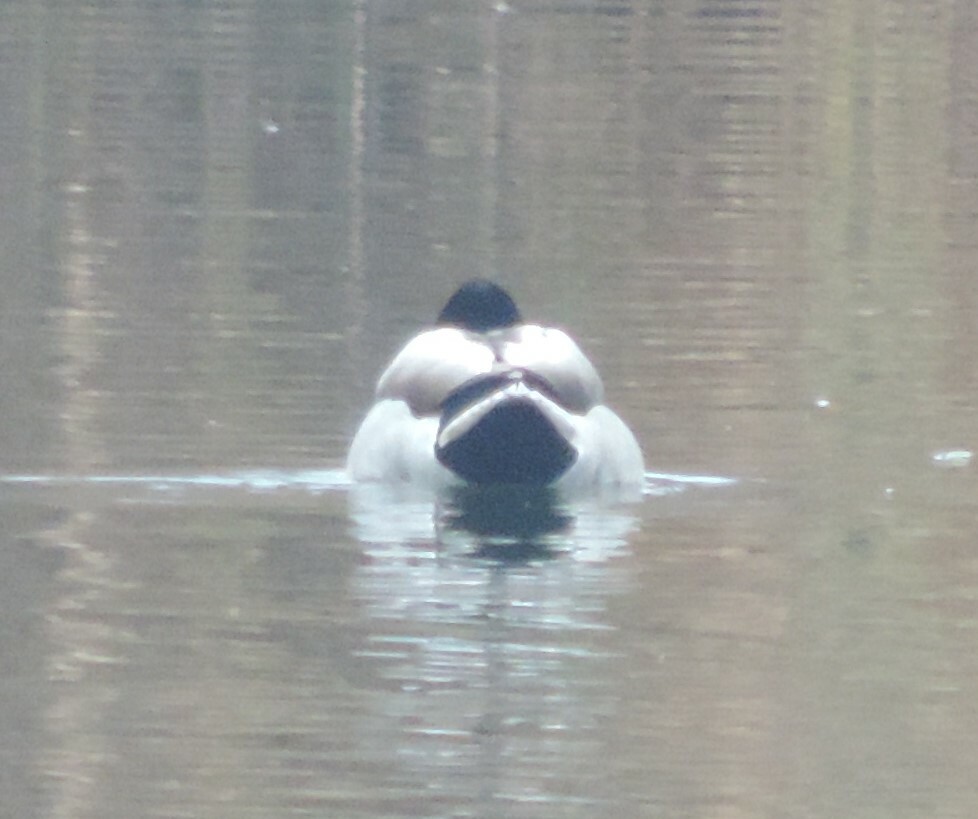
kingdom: Animalia
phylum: Chordata
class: Aves
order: Anseriformes
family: Anatidae
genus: Anas
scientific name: Anas platyrhynchos
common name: Mallard
